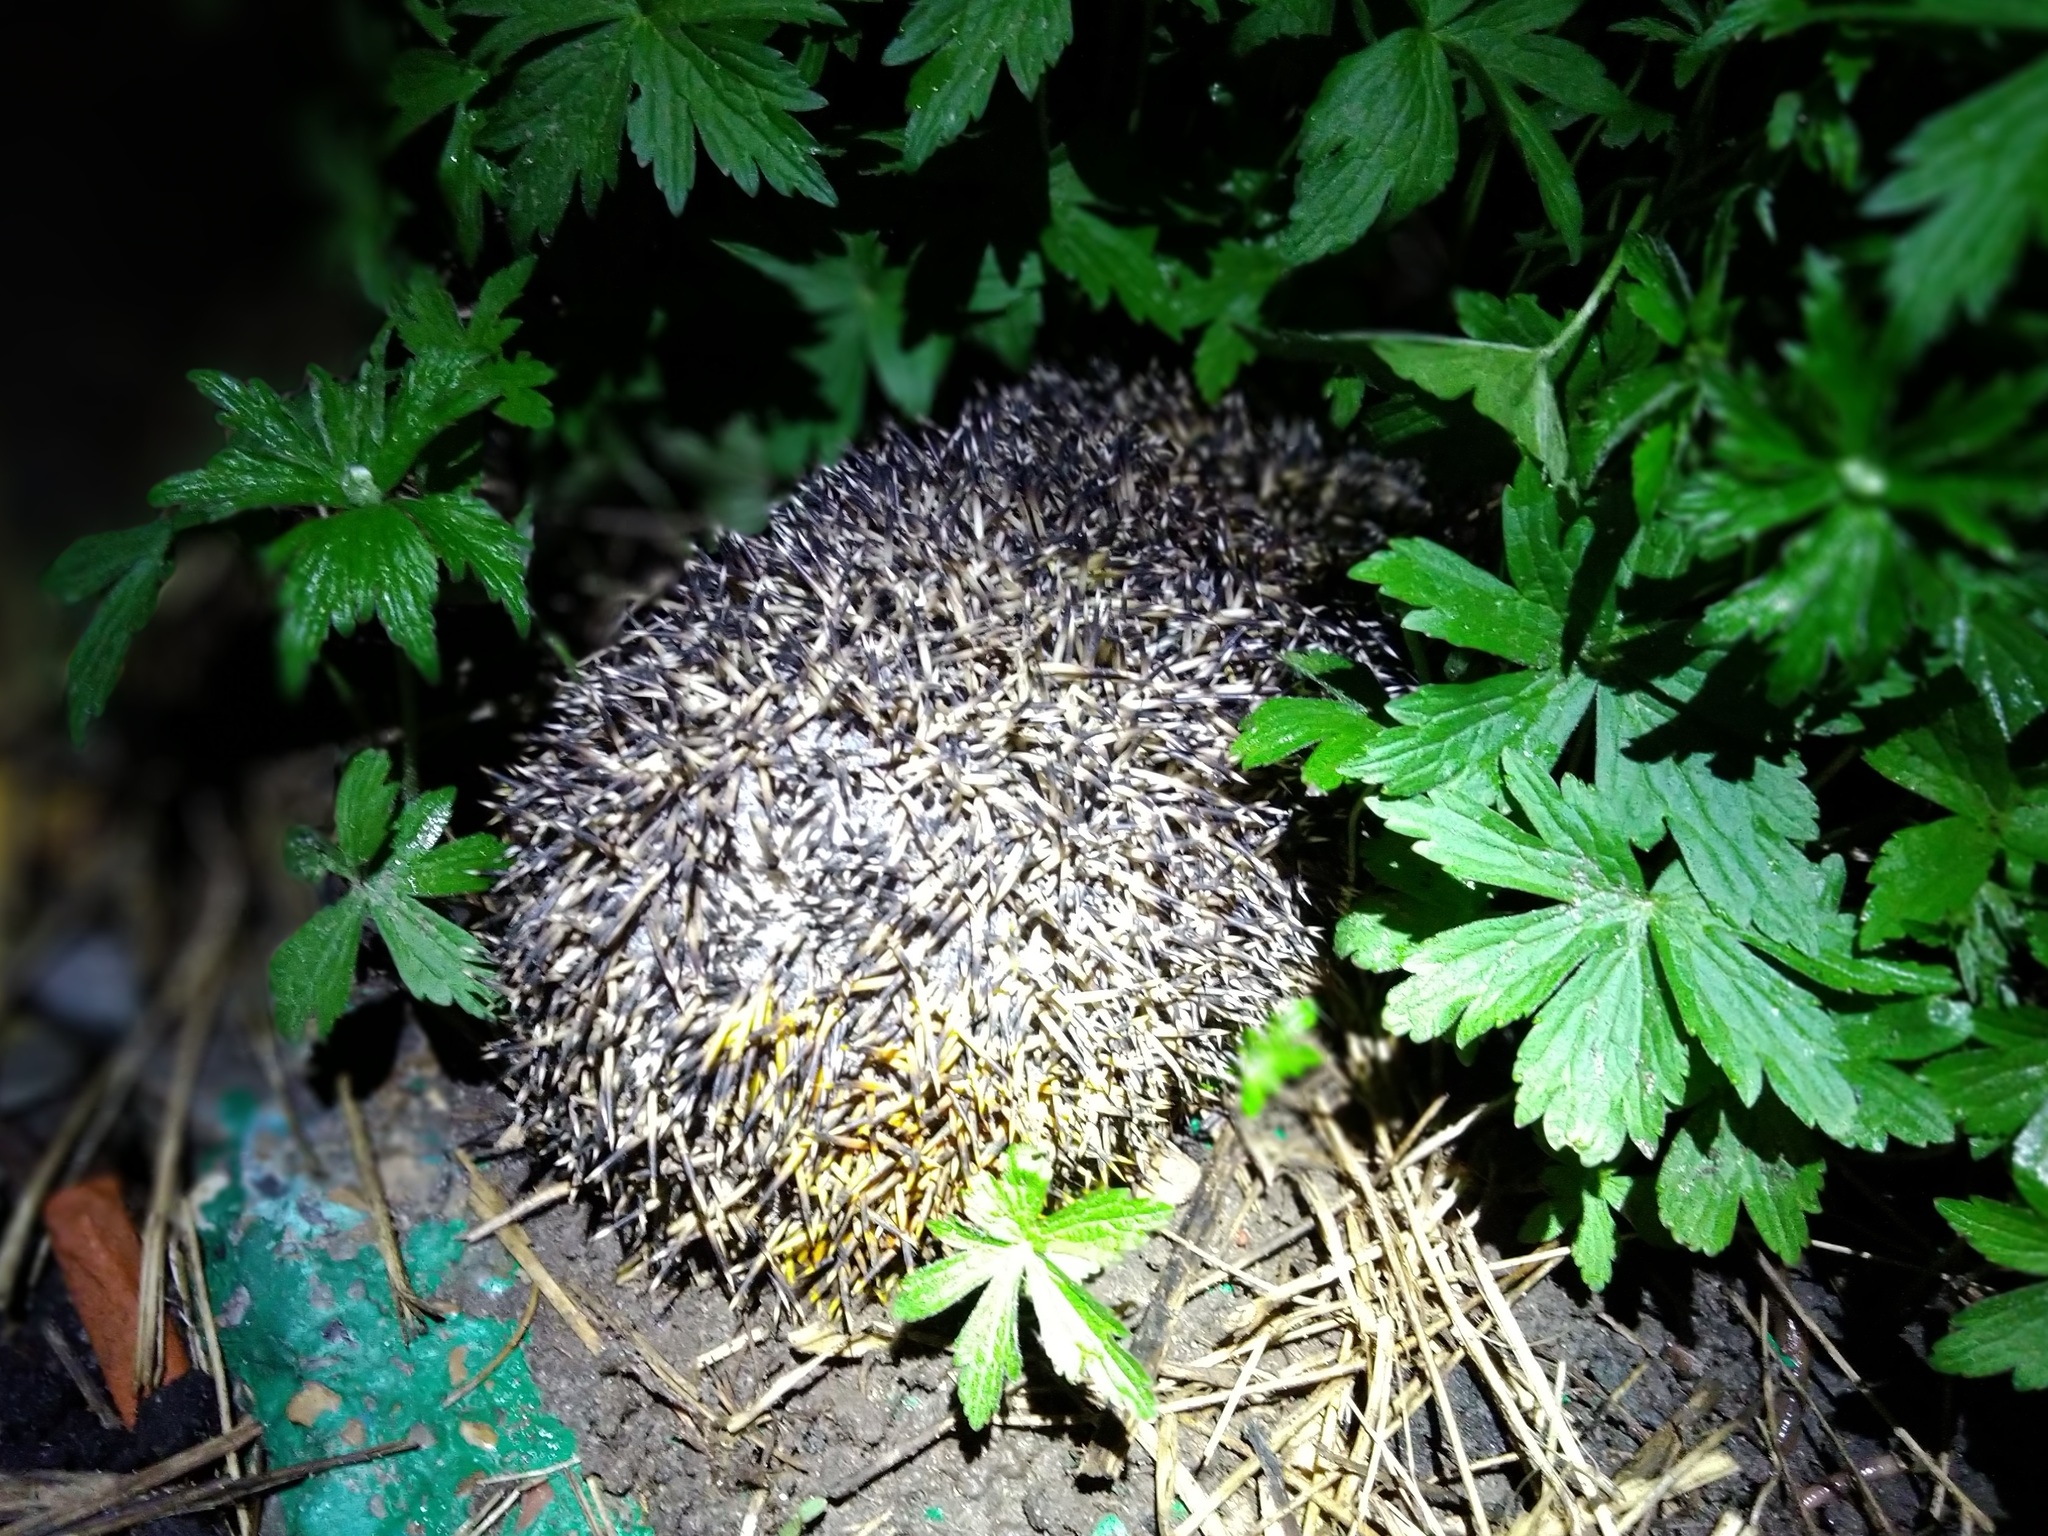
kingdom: Animalia
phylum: Chordata
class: Mammalia
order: Erinaceomorpha
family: Erinaceidae
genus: Erinaceus
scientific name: Erinaceus
